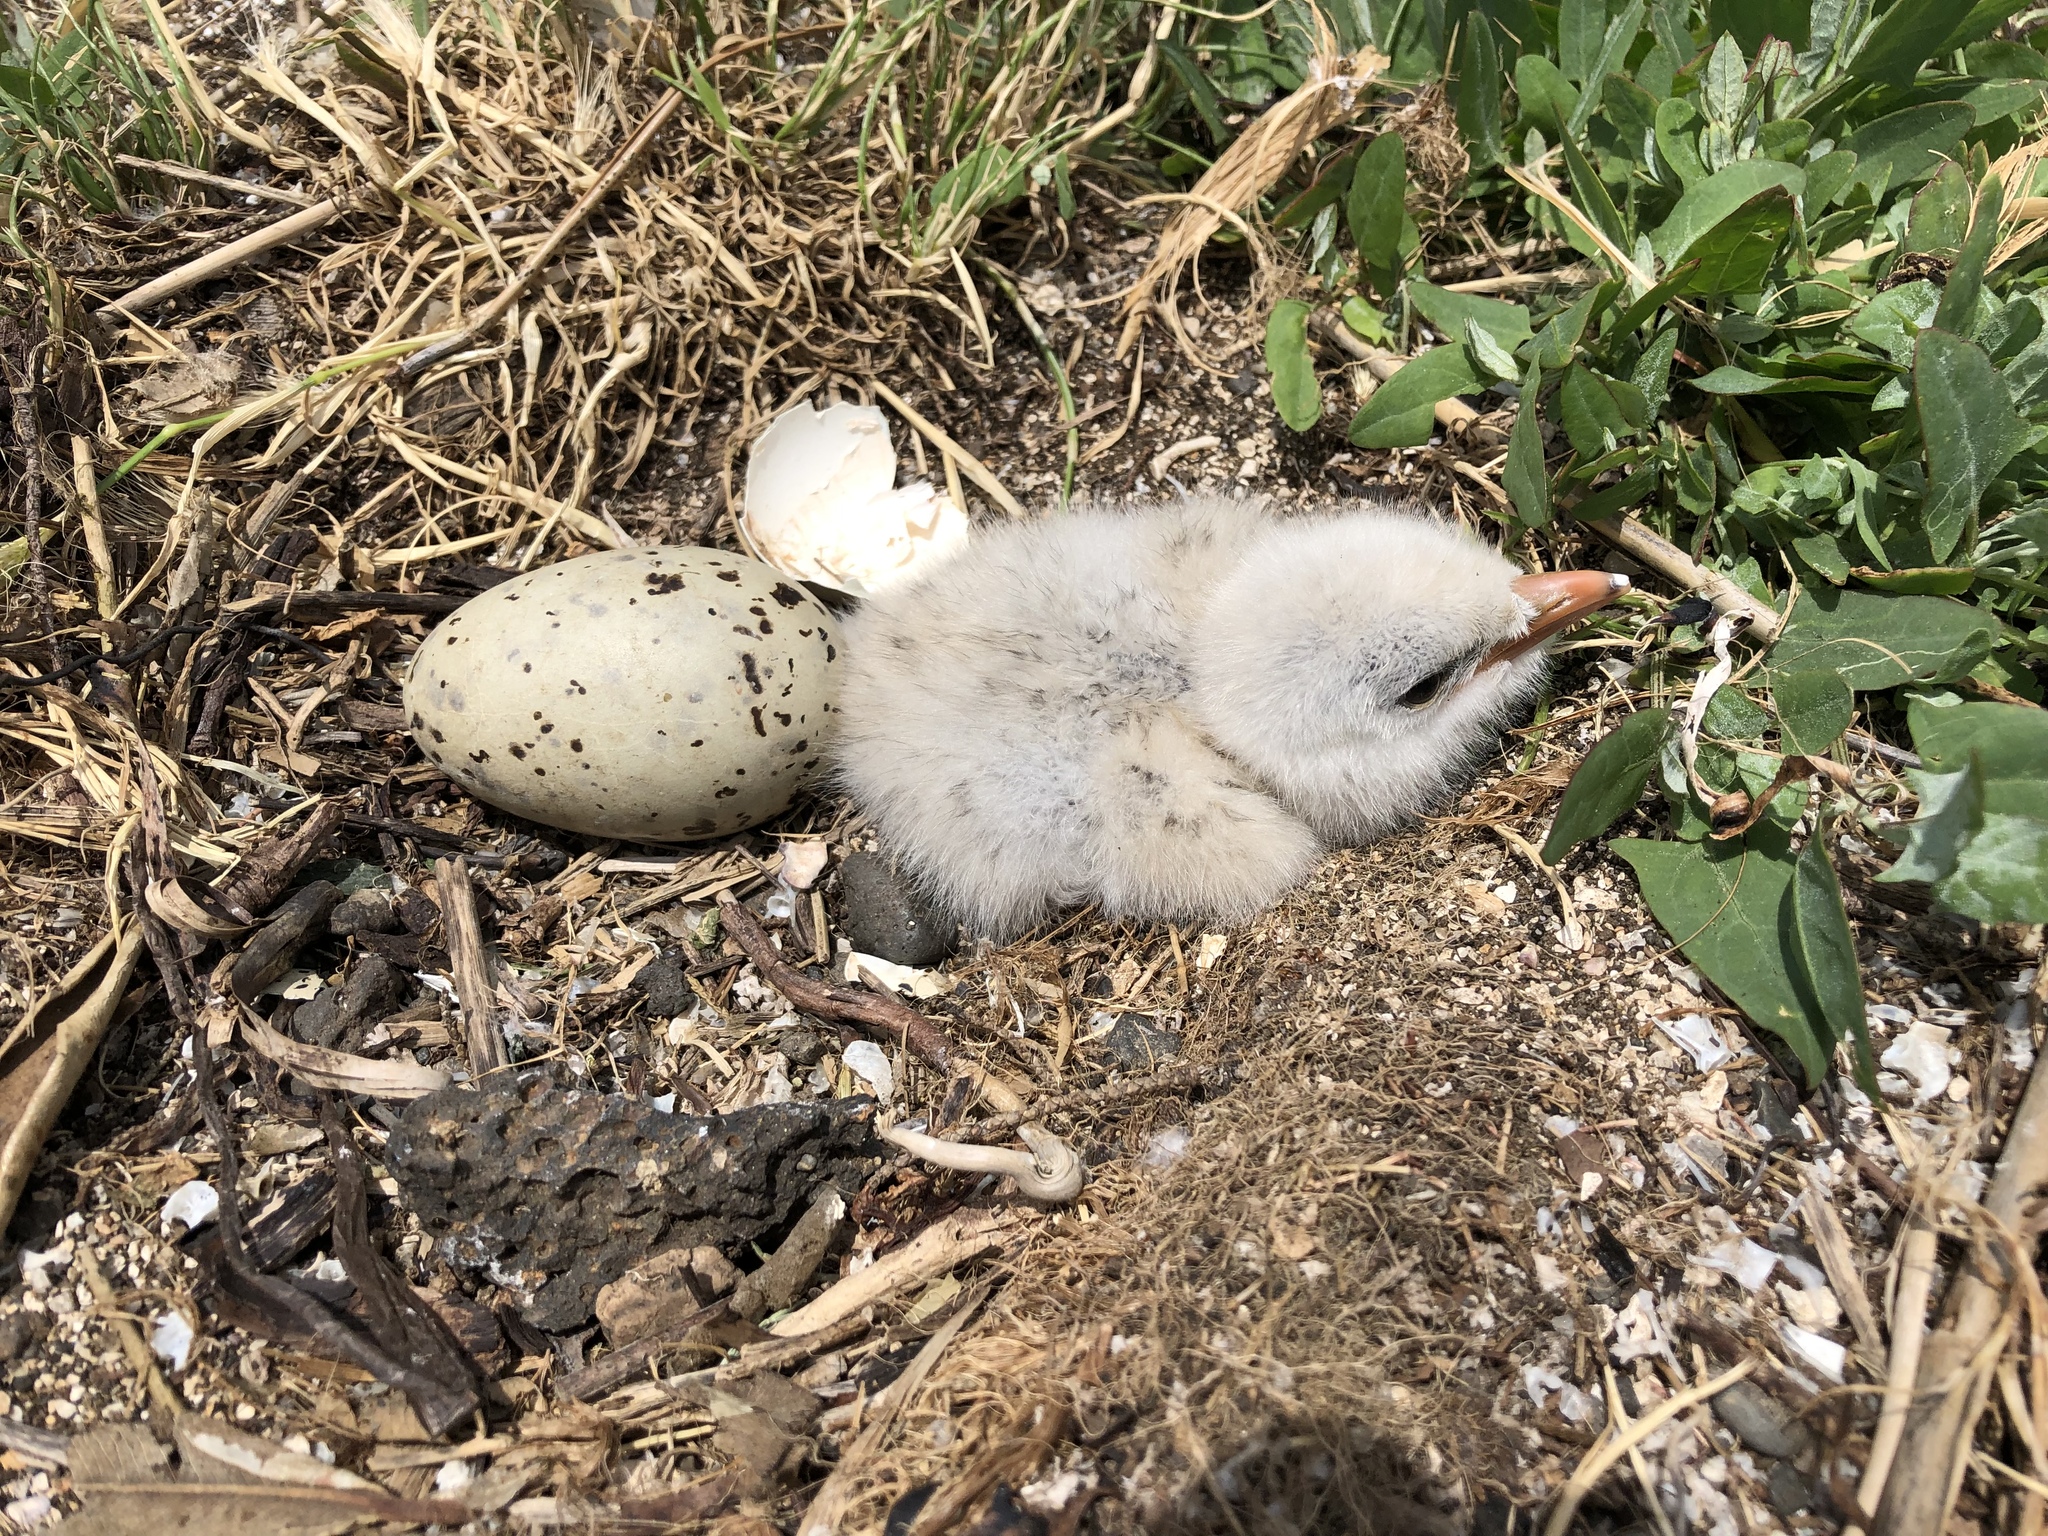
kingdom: Animalia
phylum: Chordata
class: Aves
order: Charadriiformes
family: Laridae
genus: Hydroprogne
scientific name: Hydroprogne caspia
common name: Caspian tern
